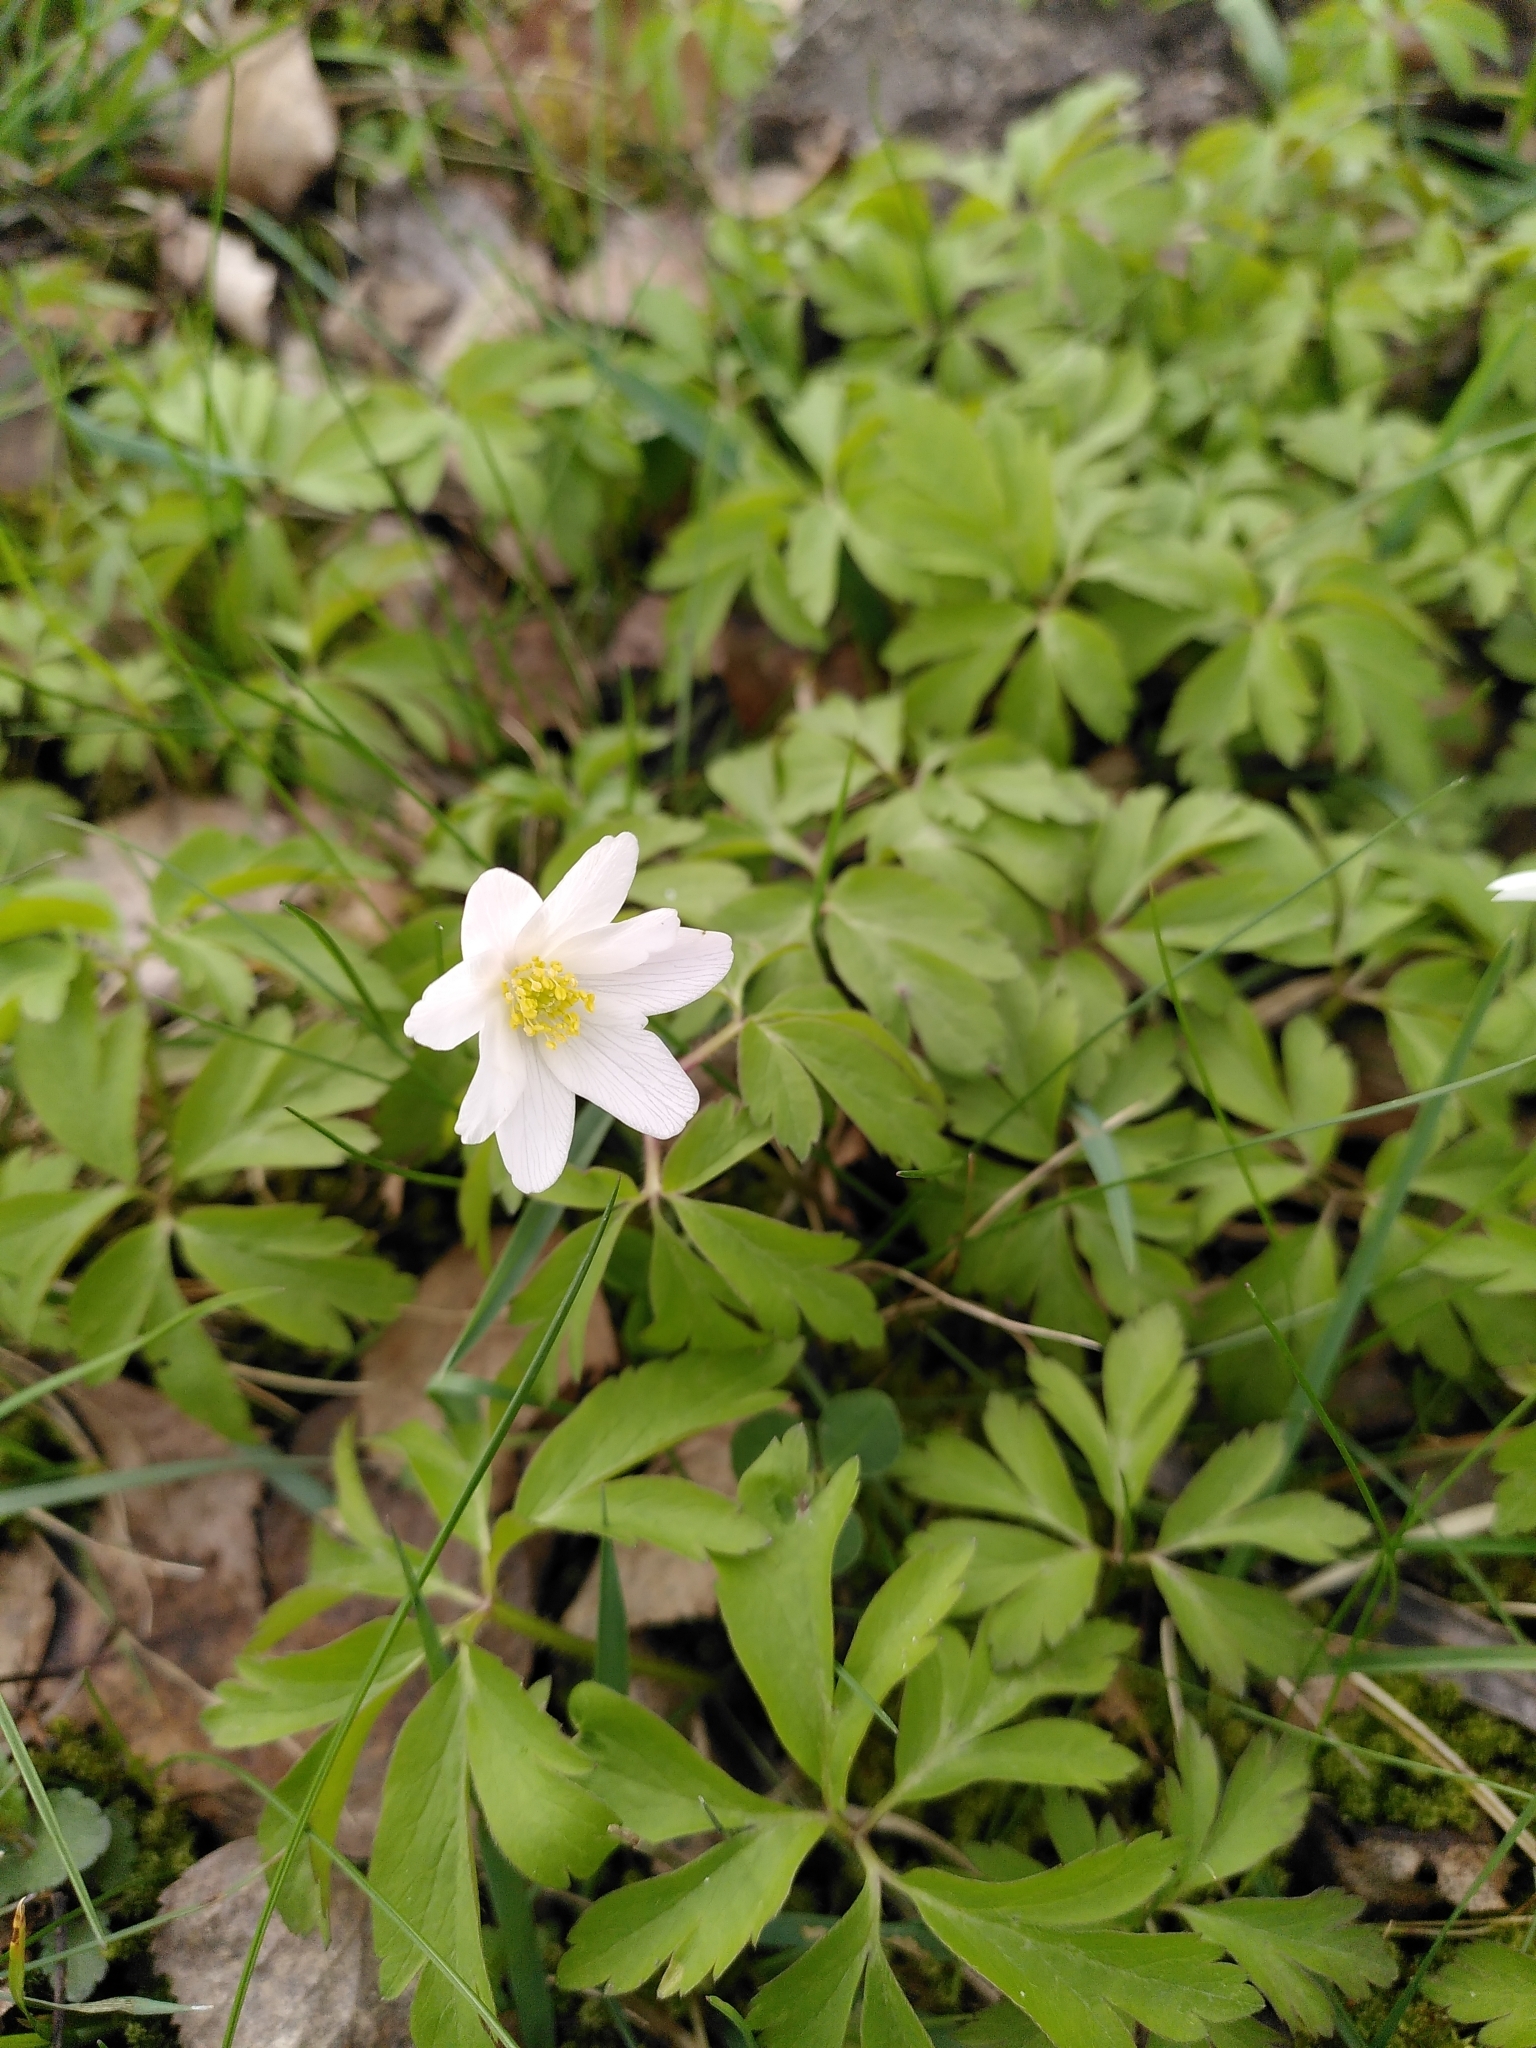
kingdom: Plantae
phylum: Tracheophyta
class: Magnoliopsida
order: Ranunculales
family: Ranunculaceae
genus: Anemone
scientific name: Anemone nemorosa
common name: Wood anemone
